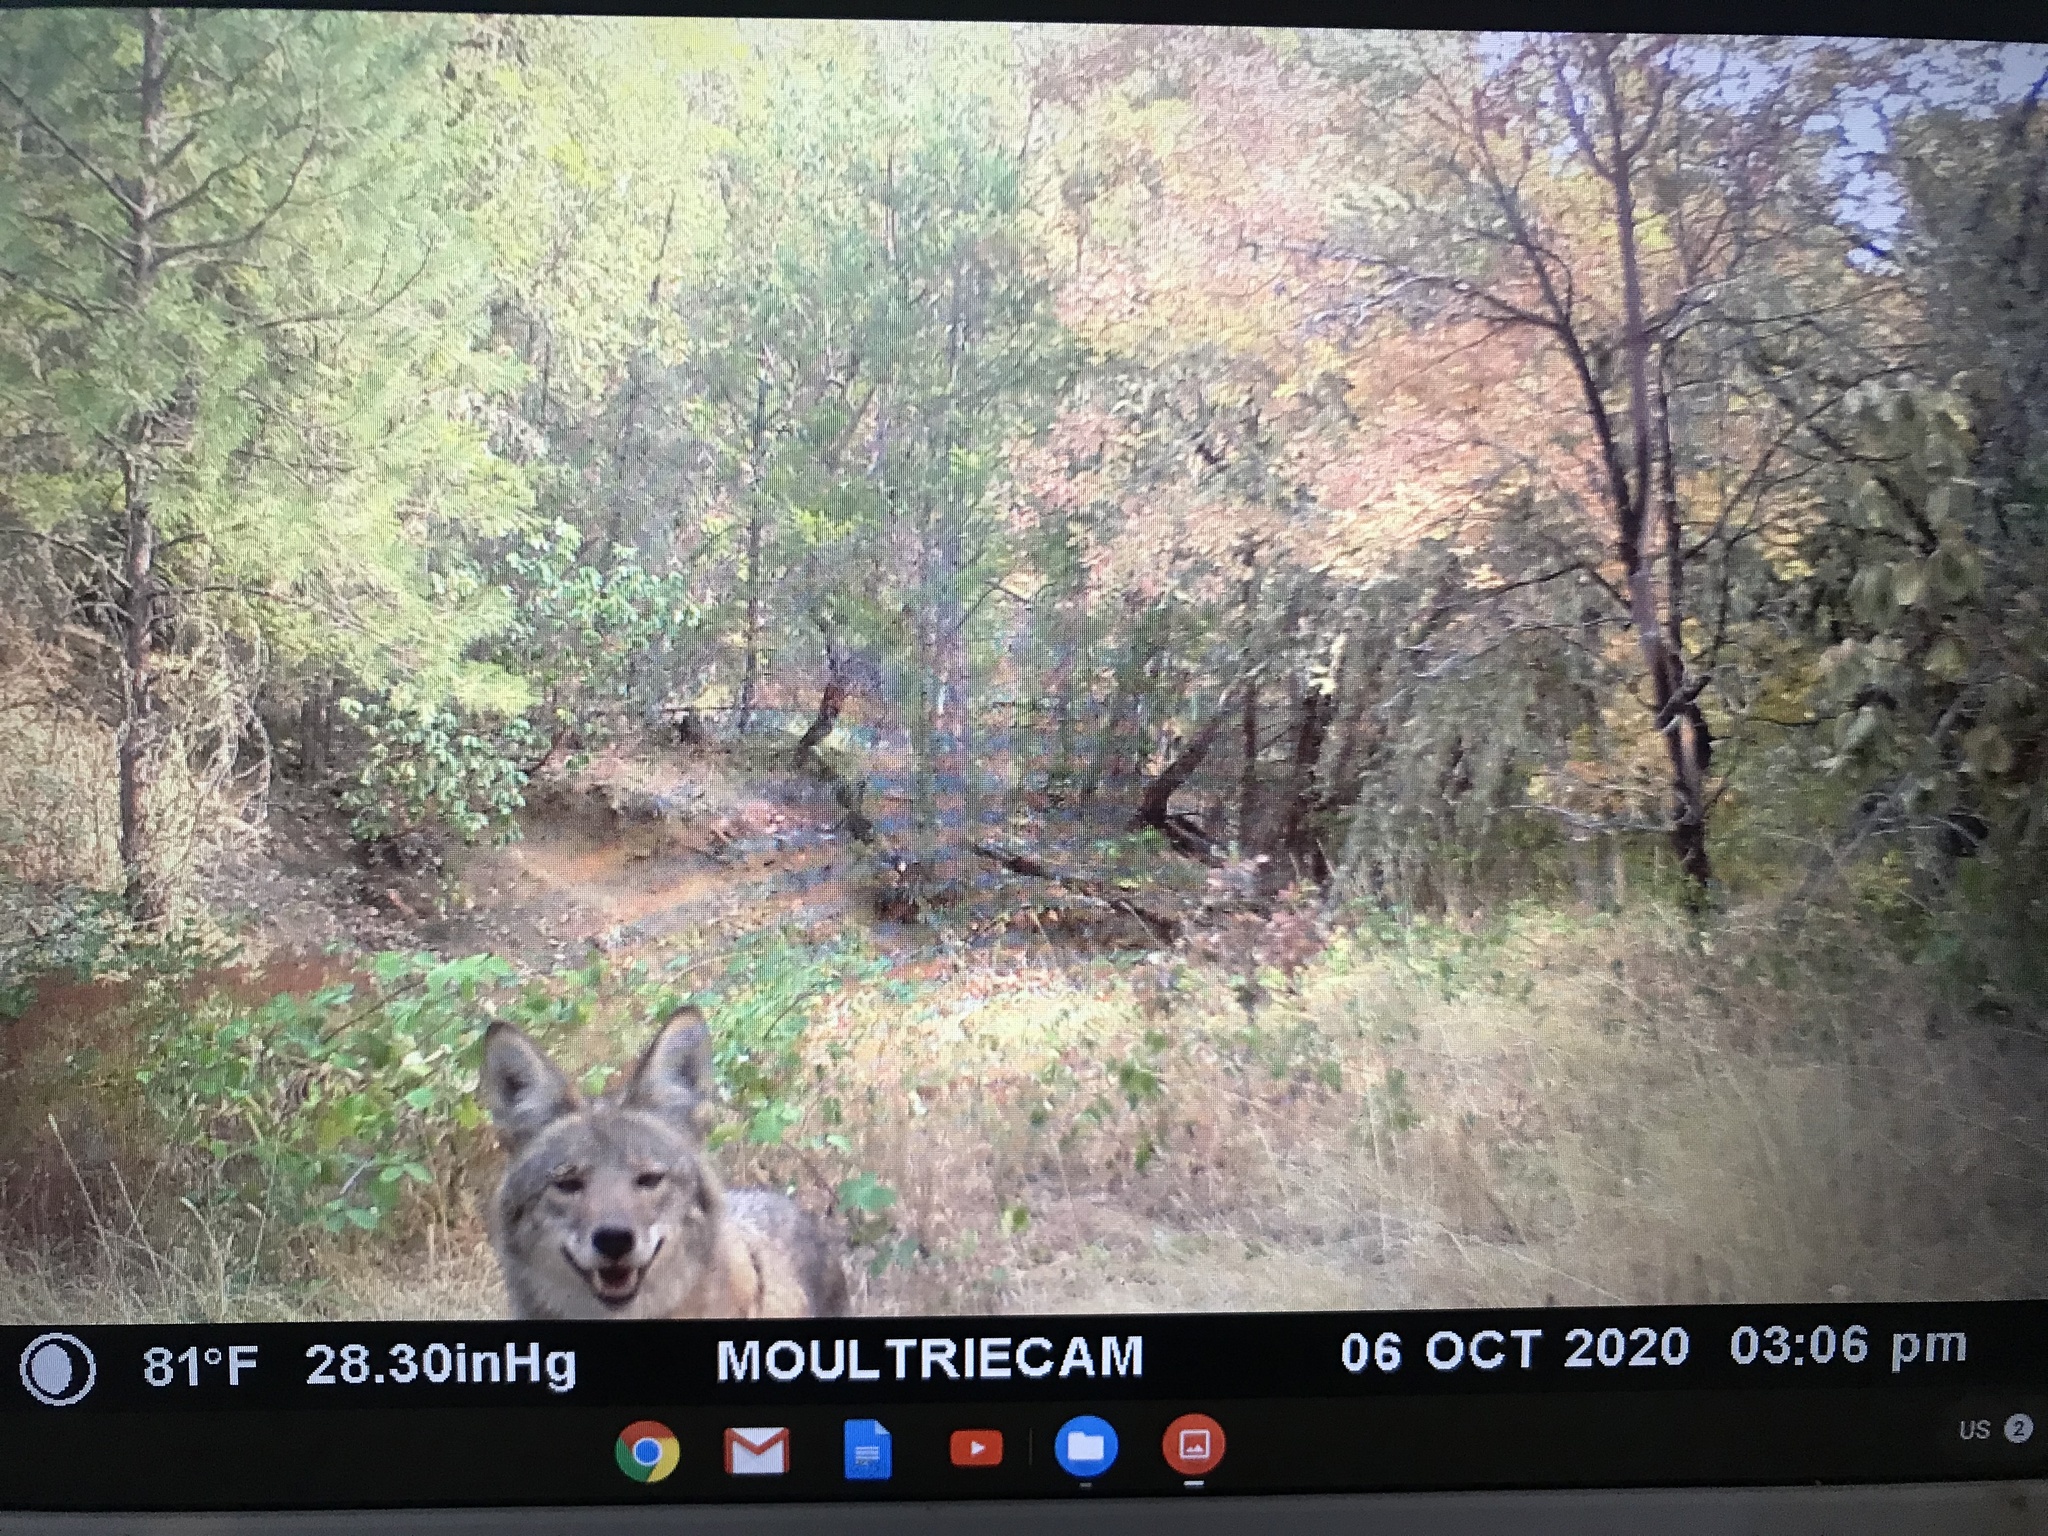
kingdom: Animalia
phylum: Chordata
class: Mammalia
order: Carnivora
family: Canidae
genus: Canis
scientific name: Canis latrans
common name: Coyote
